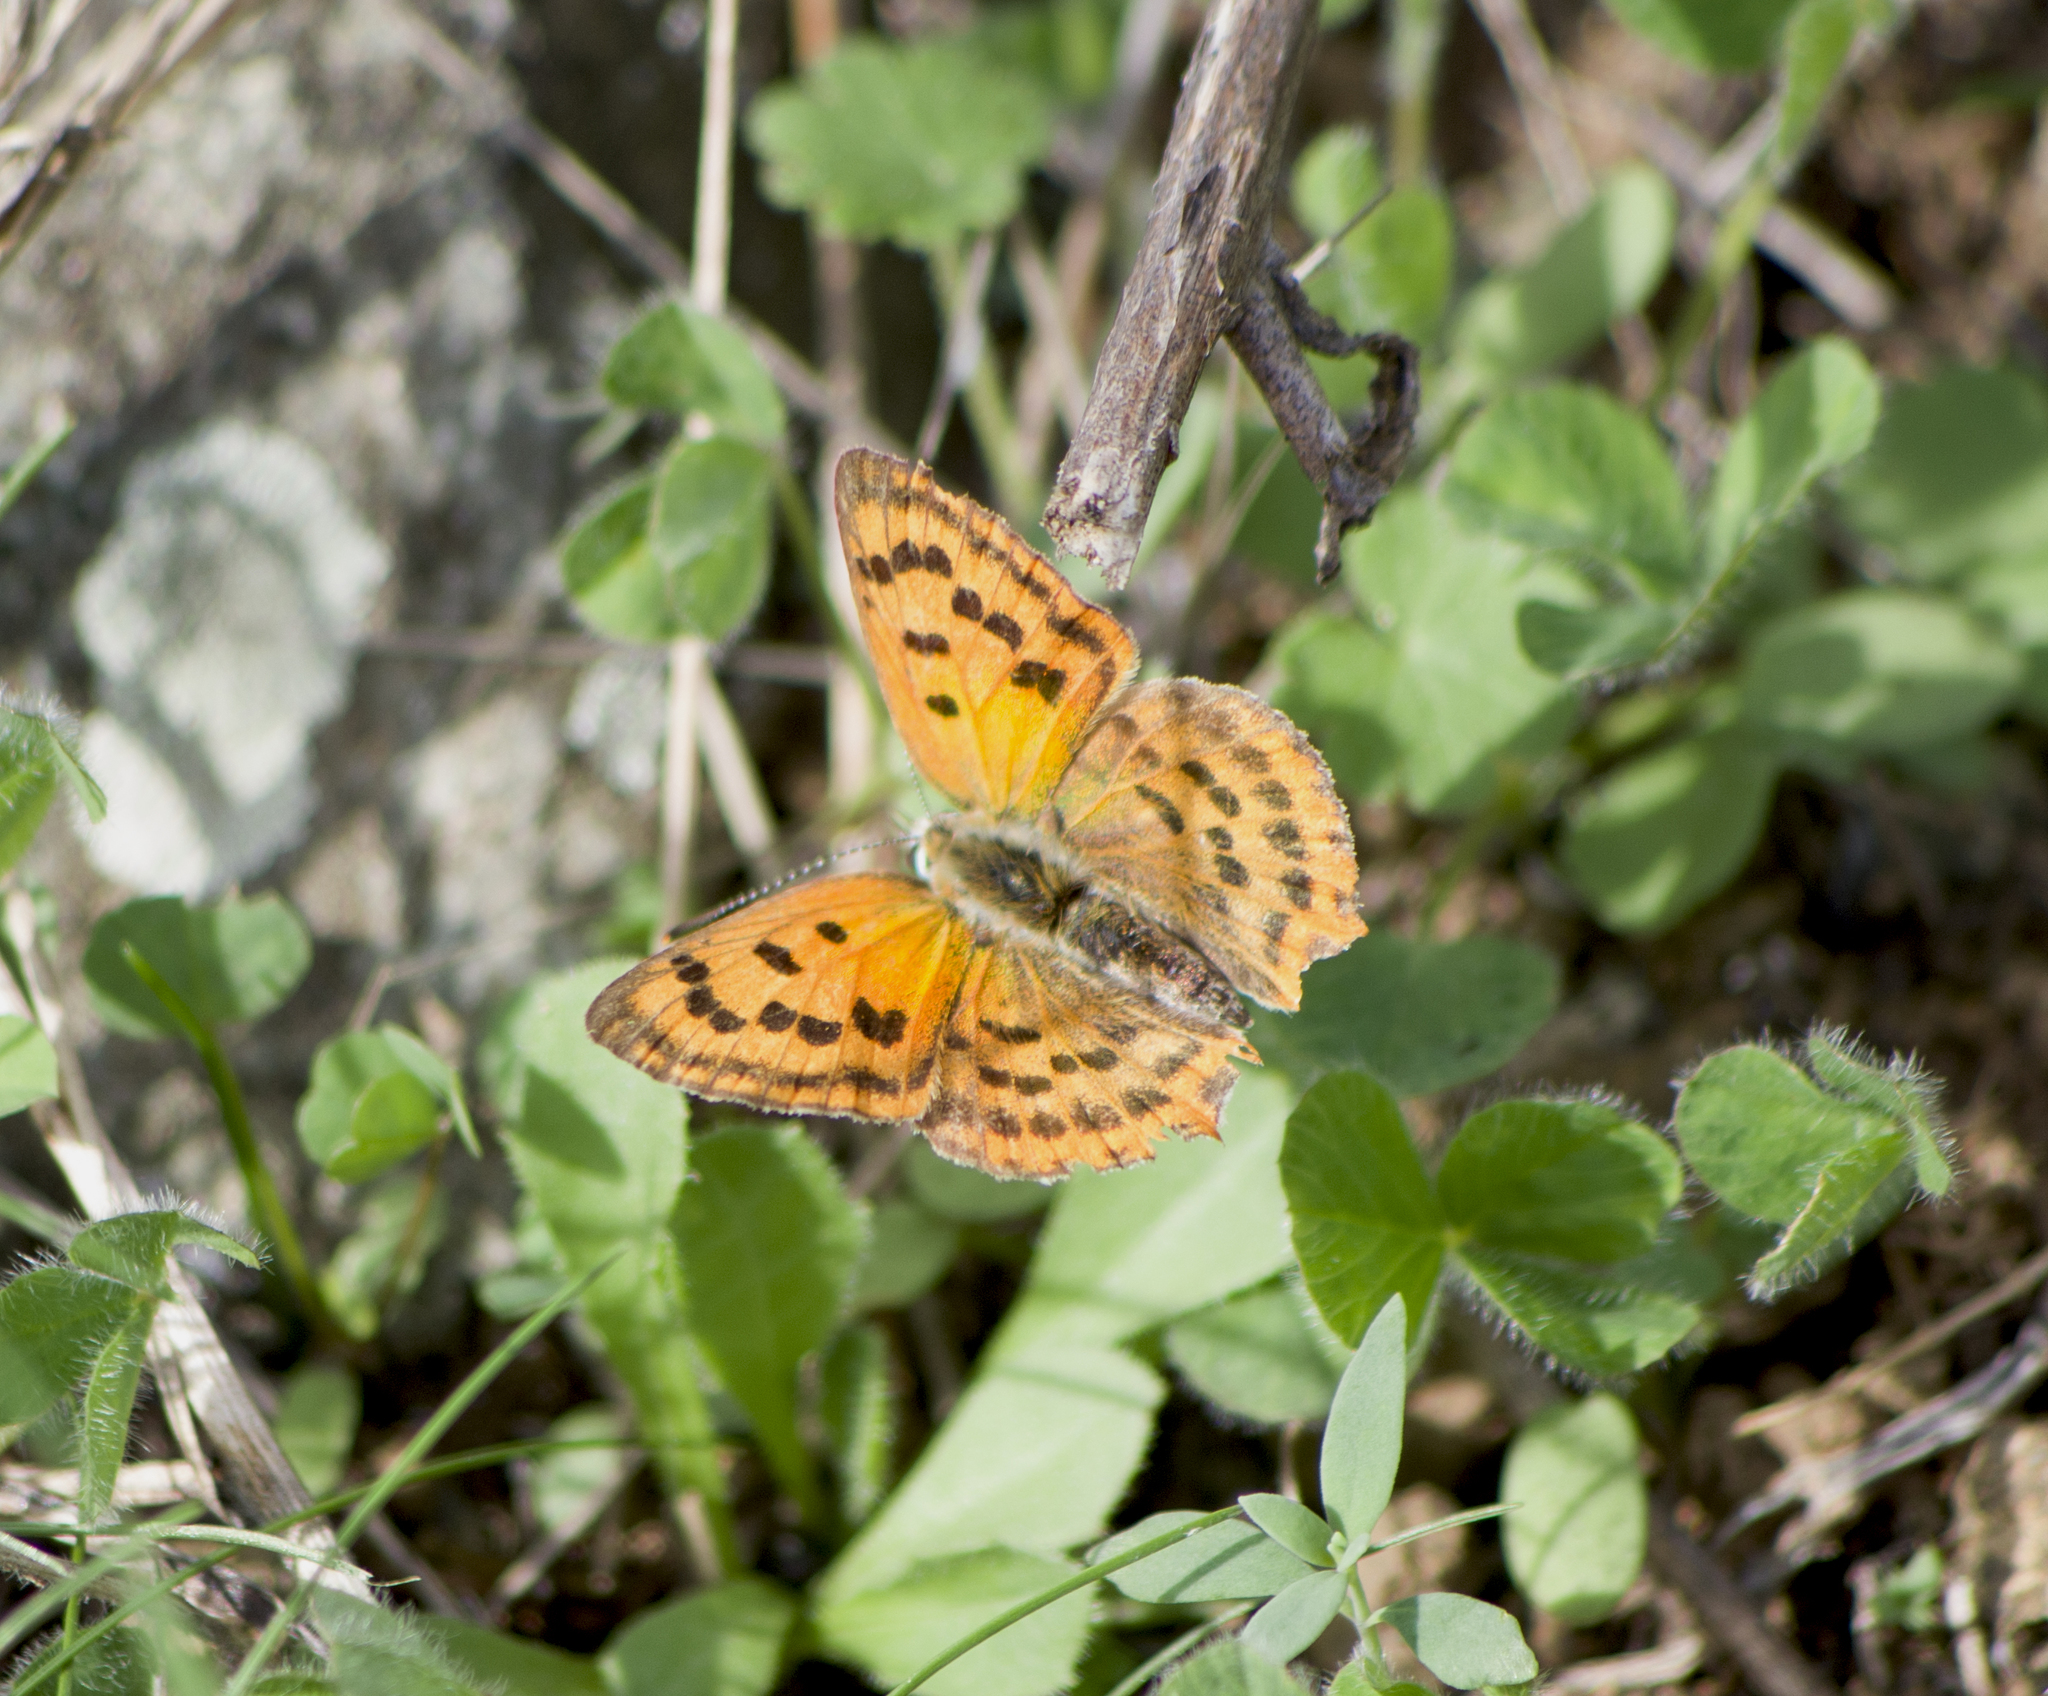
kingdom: Animalia
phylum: Arthropoda
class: Insecta
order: Lepidoptera
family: Lycaenidae
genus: Polyommatus
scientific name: Polyommatus ottomanus
